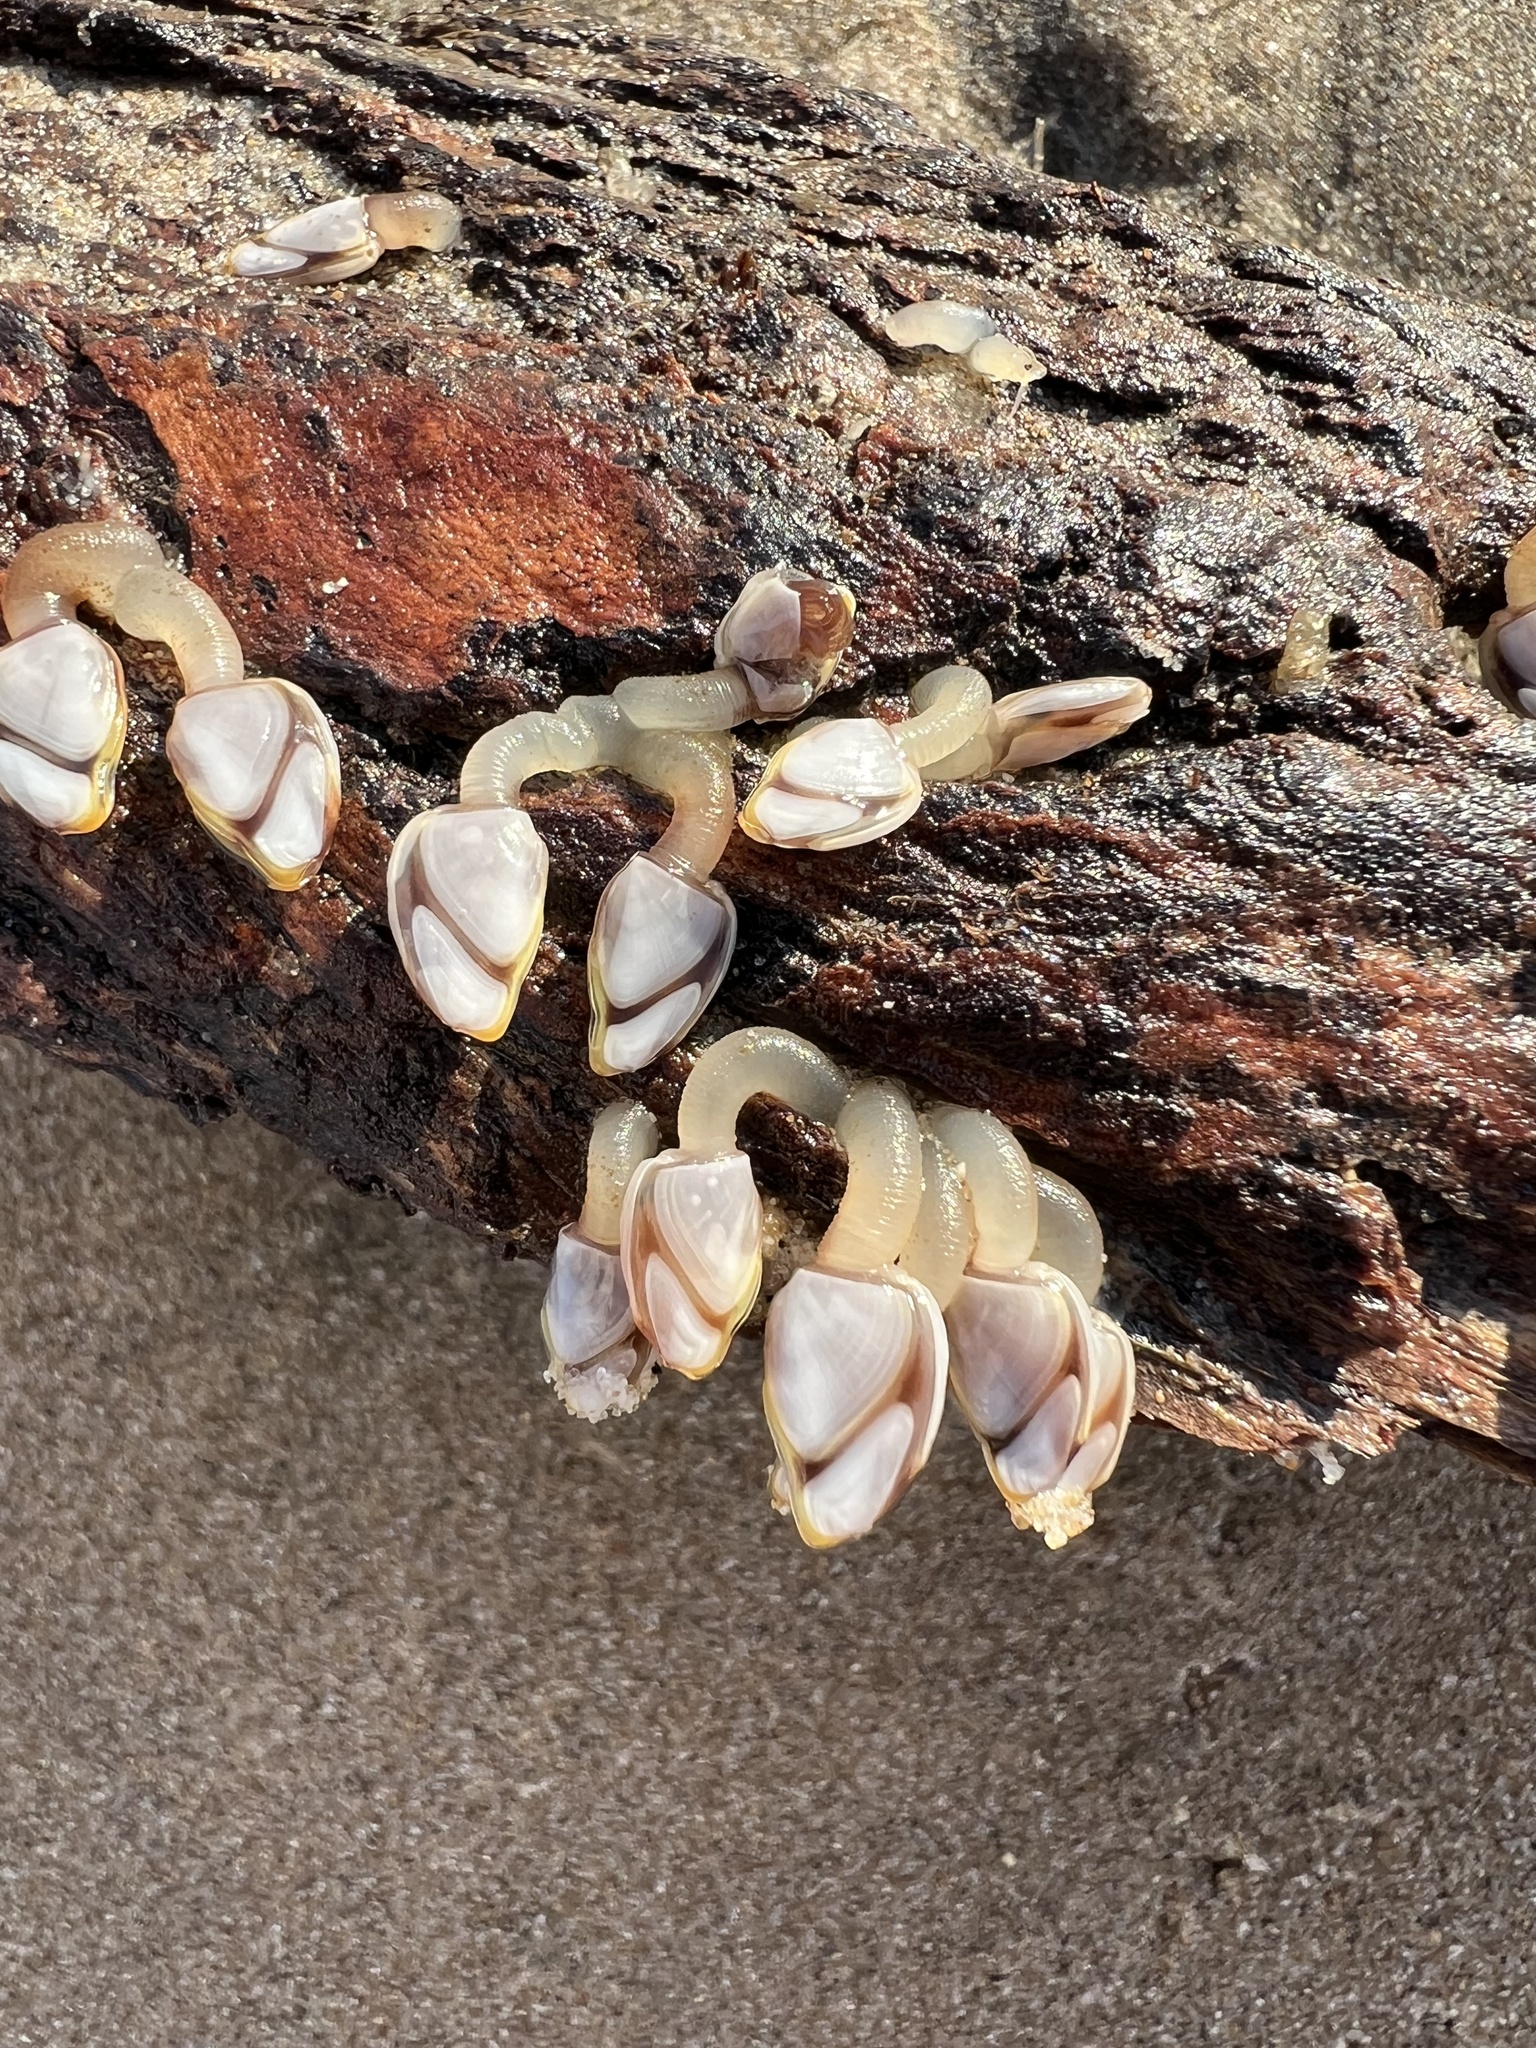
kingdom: Animalia
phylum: Arthropoda
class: Maxillopoda
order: Pedunculata
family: Lepadidae
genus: Lepas
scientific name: Lepas anatifera
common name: Common goose barnacle
